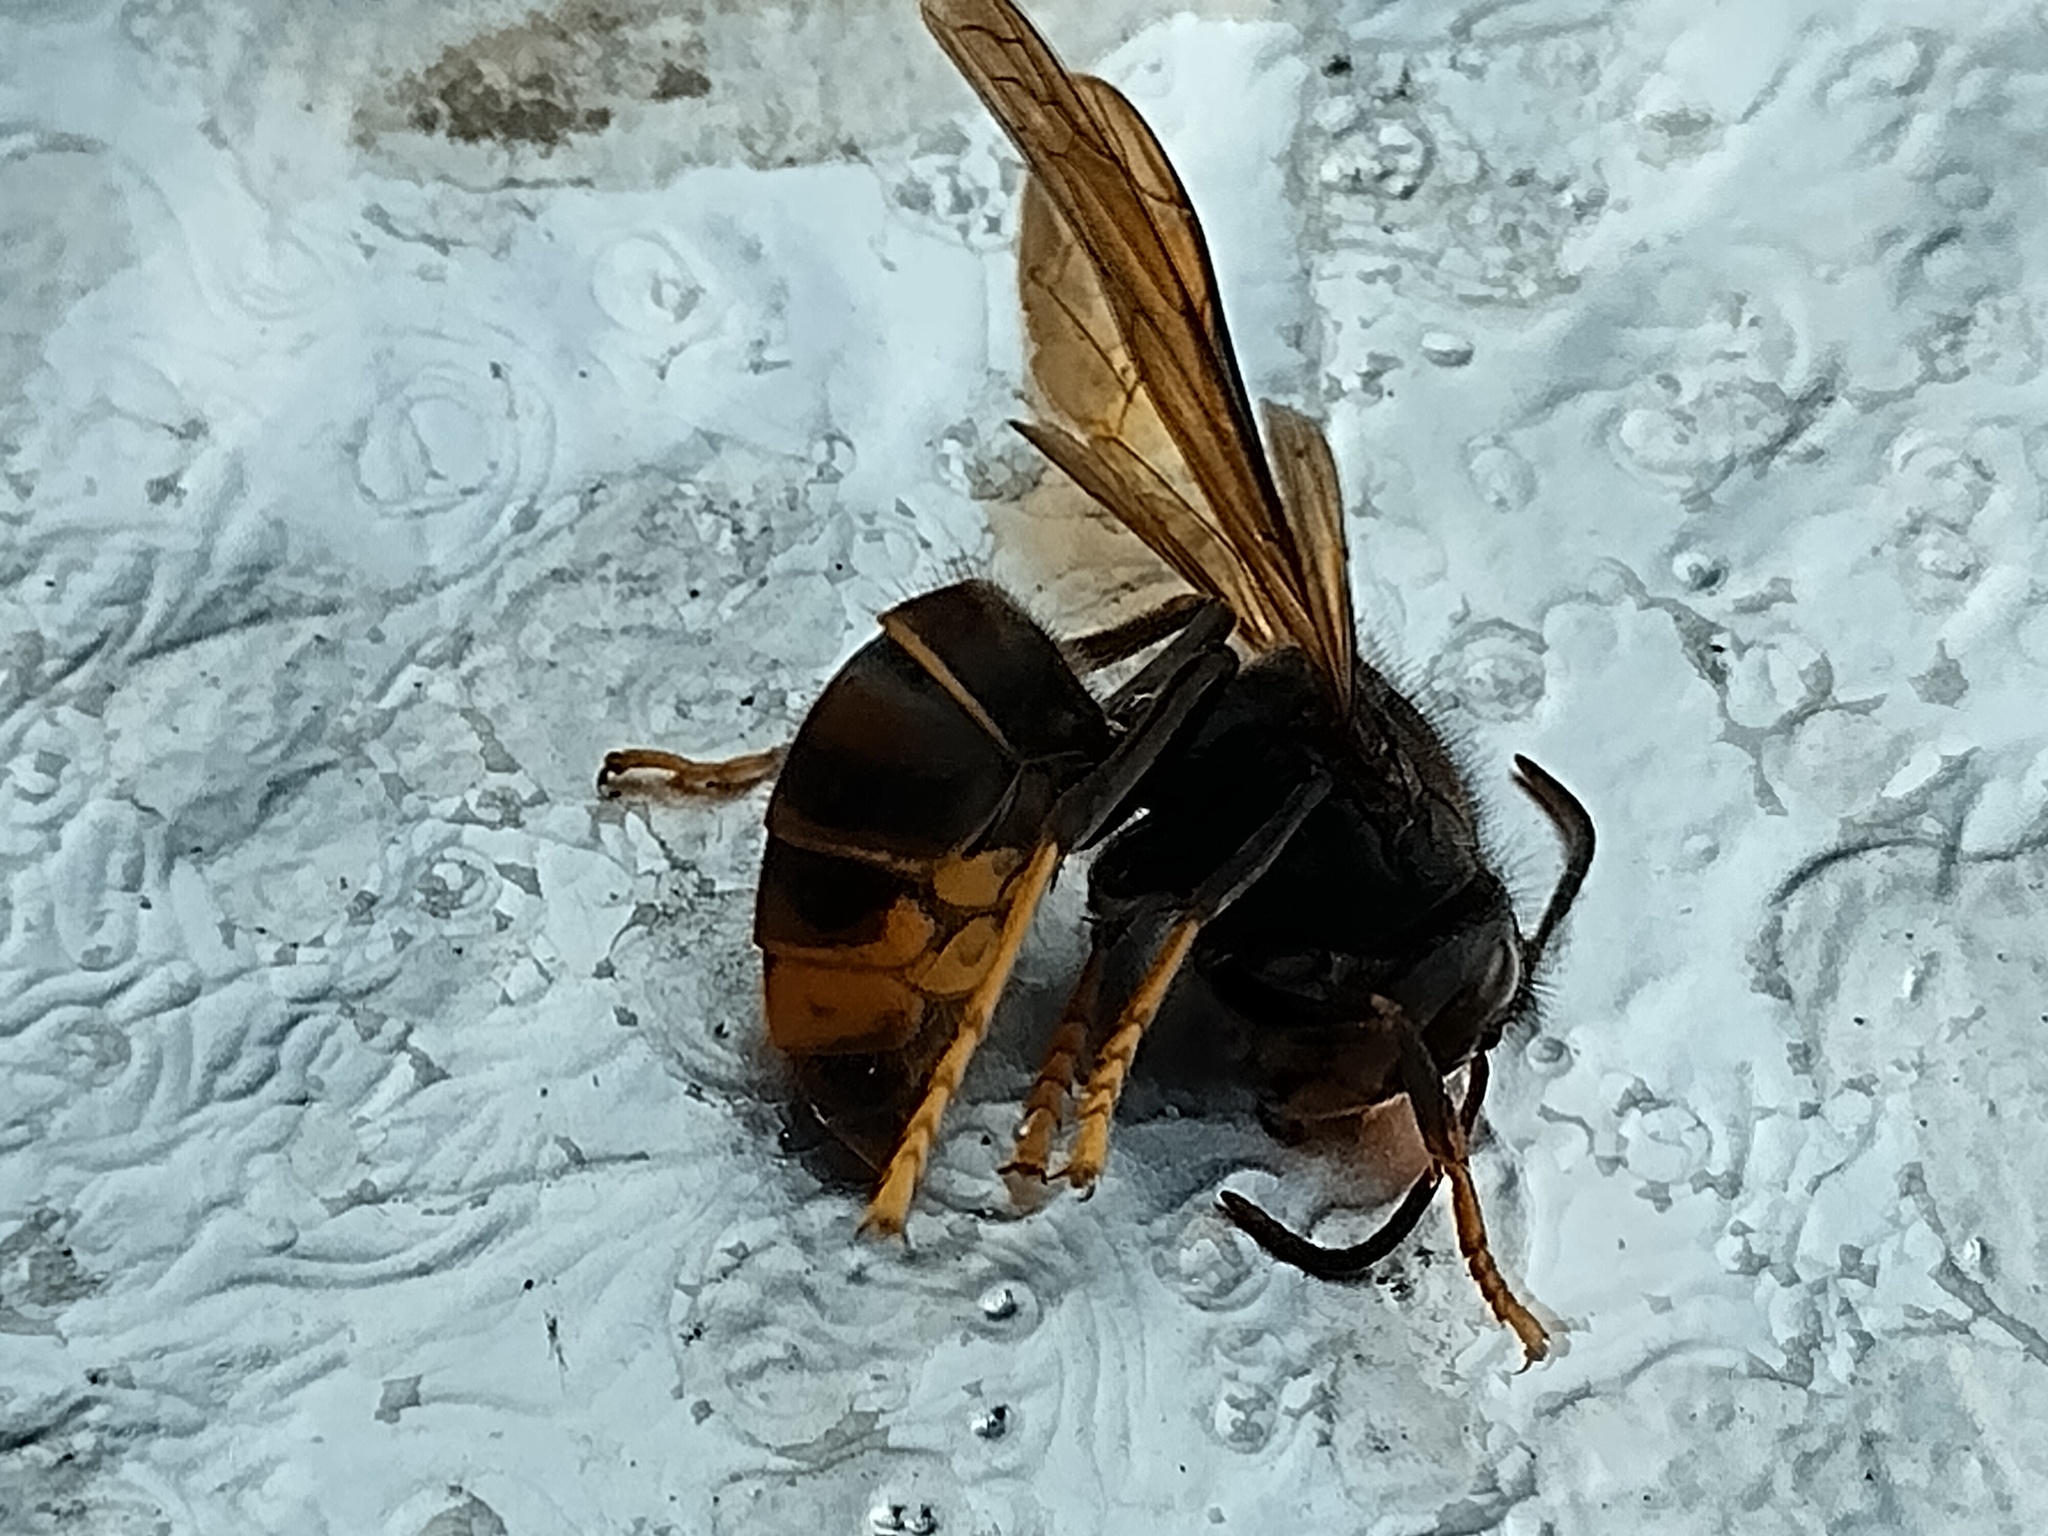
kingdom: Animalia
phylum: Arthropoda
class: Insecta
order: Hymenoptera
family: Vespidae
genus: Vespa
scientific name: Vespa velutina
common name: Asian hornet
